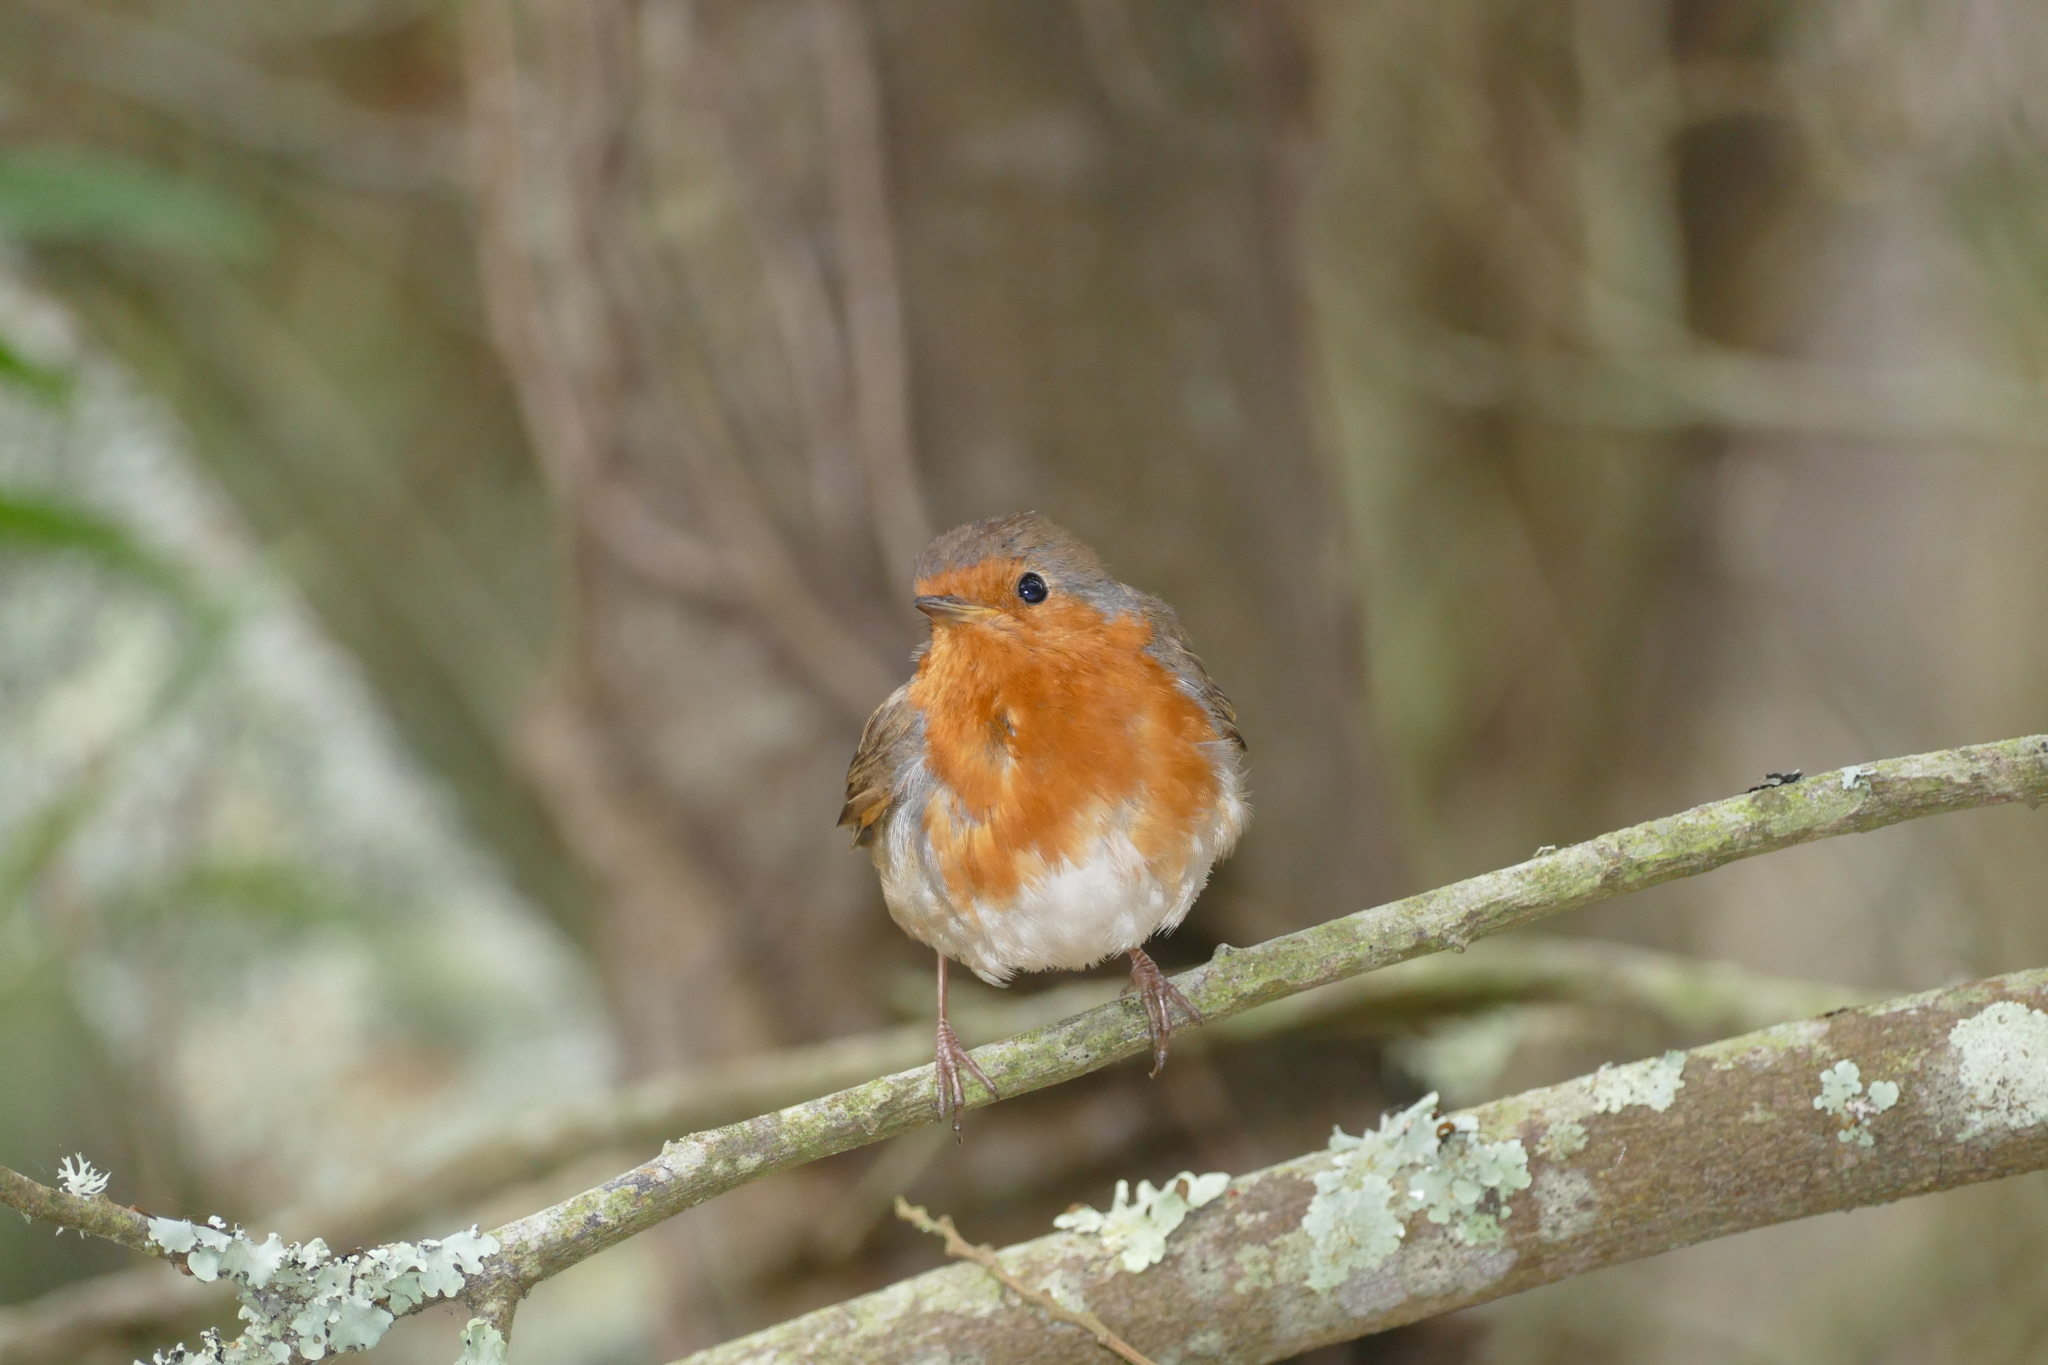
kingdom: Animalia
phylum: Chordata
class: Aves
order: Passeriformes
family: Muscicapidae
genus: Erithacus
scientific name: Erithacus rubecula
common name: European robin
